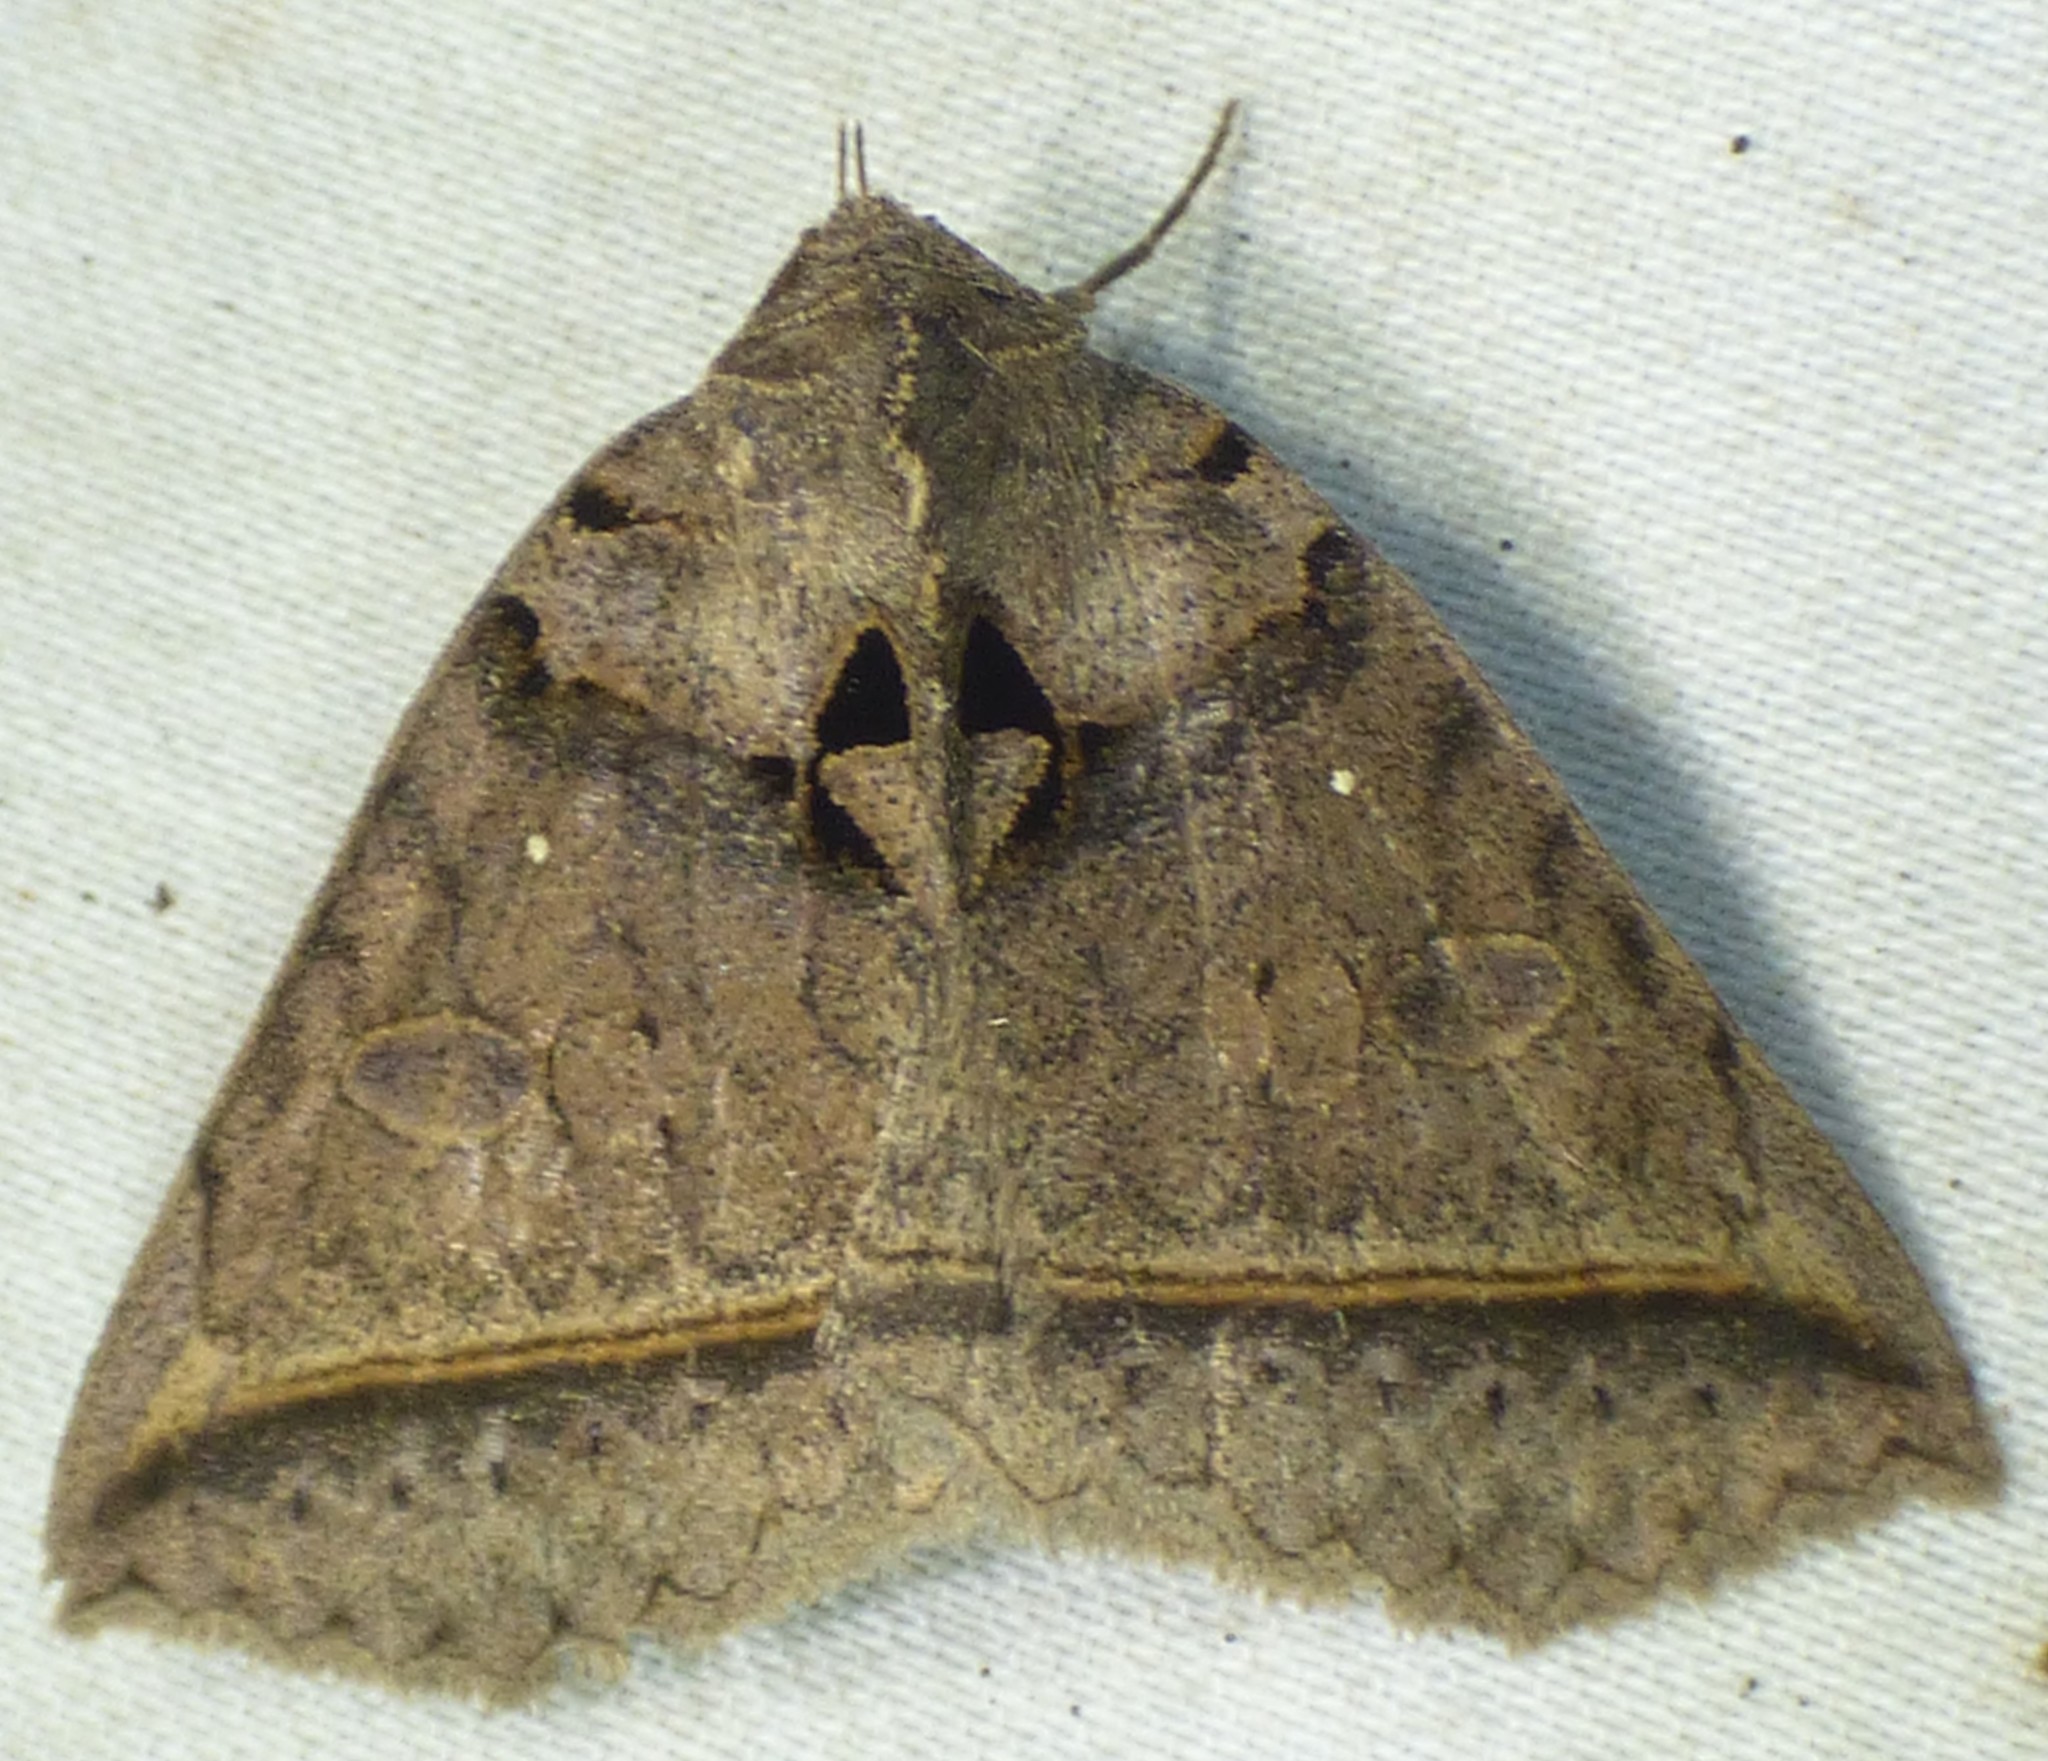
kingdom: Animalia
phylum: Arthropoda
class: Insecta
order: Lepidoptera
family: Erebidae
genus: Celiptera
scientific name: Celiptera frustulum
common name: Black bit moth
